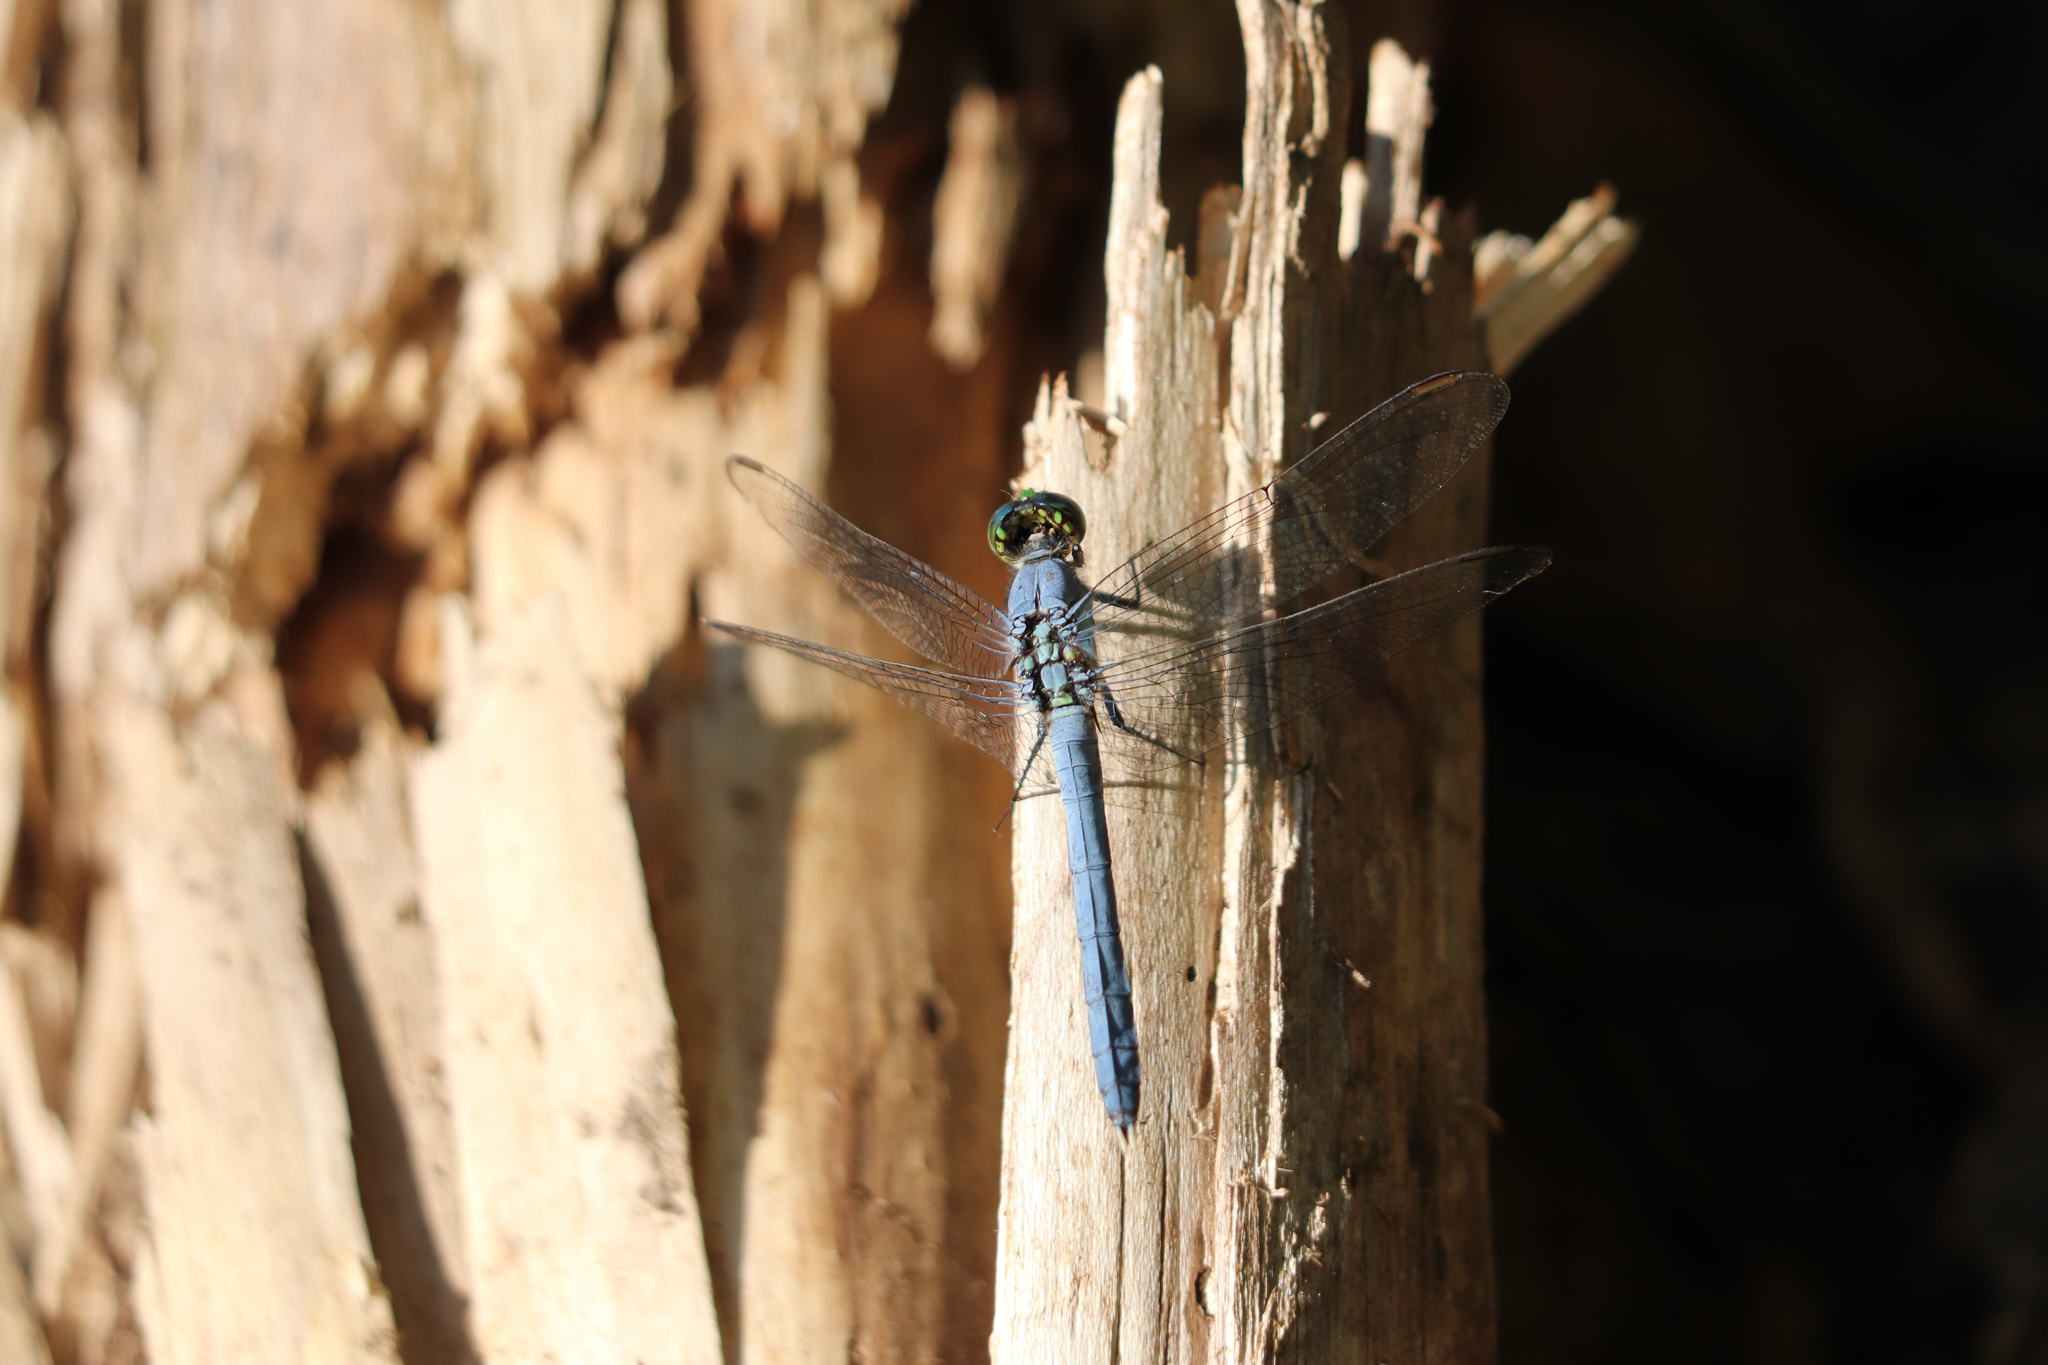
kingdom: Animalia
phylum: Arthropoda
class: Insecta
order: Odonata
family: Libellulidae
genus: Erythemis
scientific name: Erythemis simplicicollis
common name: Eastern pondhawk
